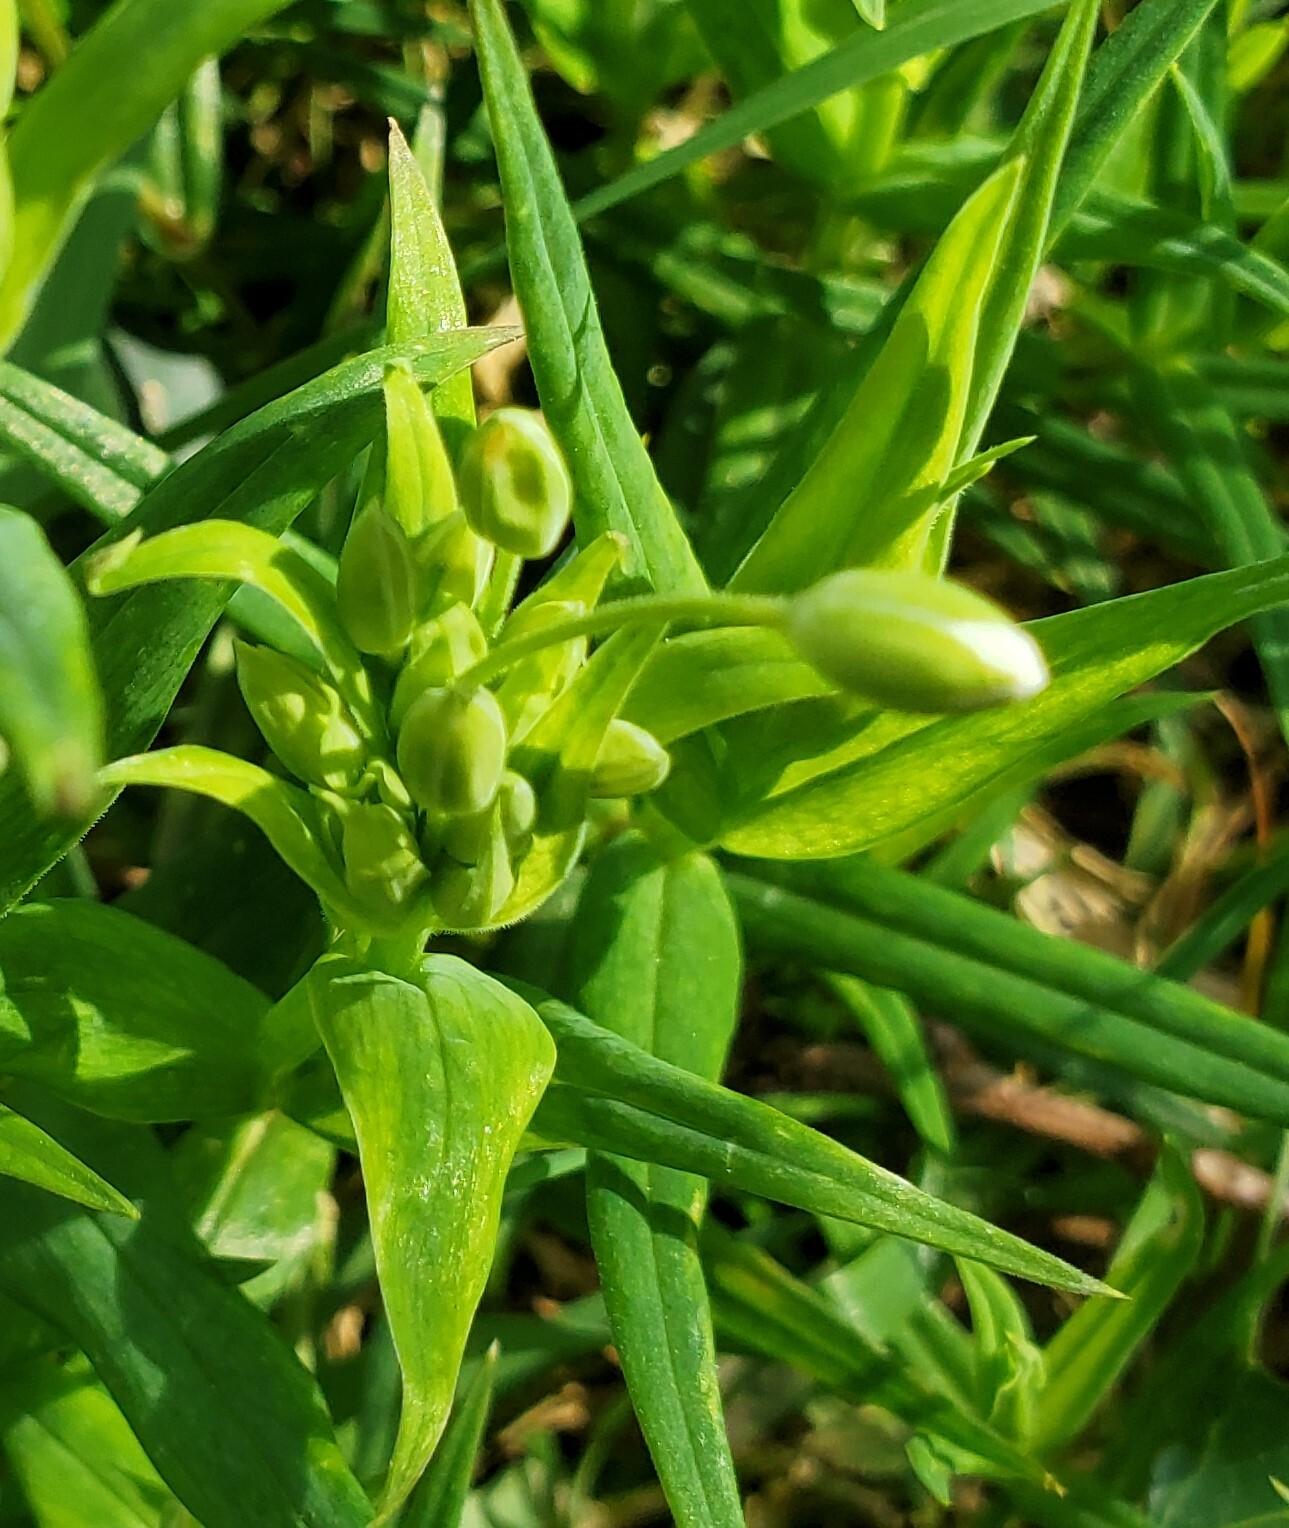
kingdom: Plantae
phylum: Tracheophyta
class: Magnoliopsida
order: Caryophyllales
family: Caryophyllaceae
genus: Rabelera
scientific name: Rabelera holostea
